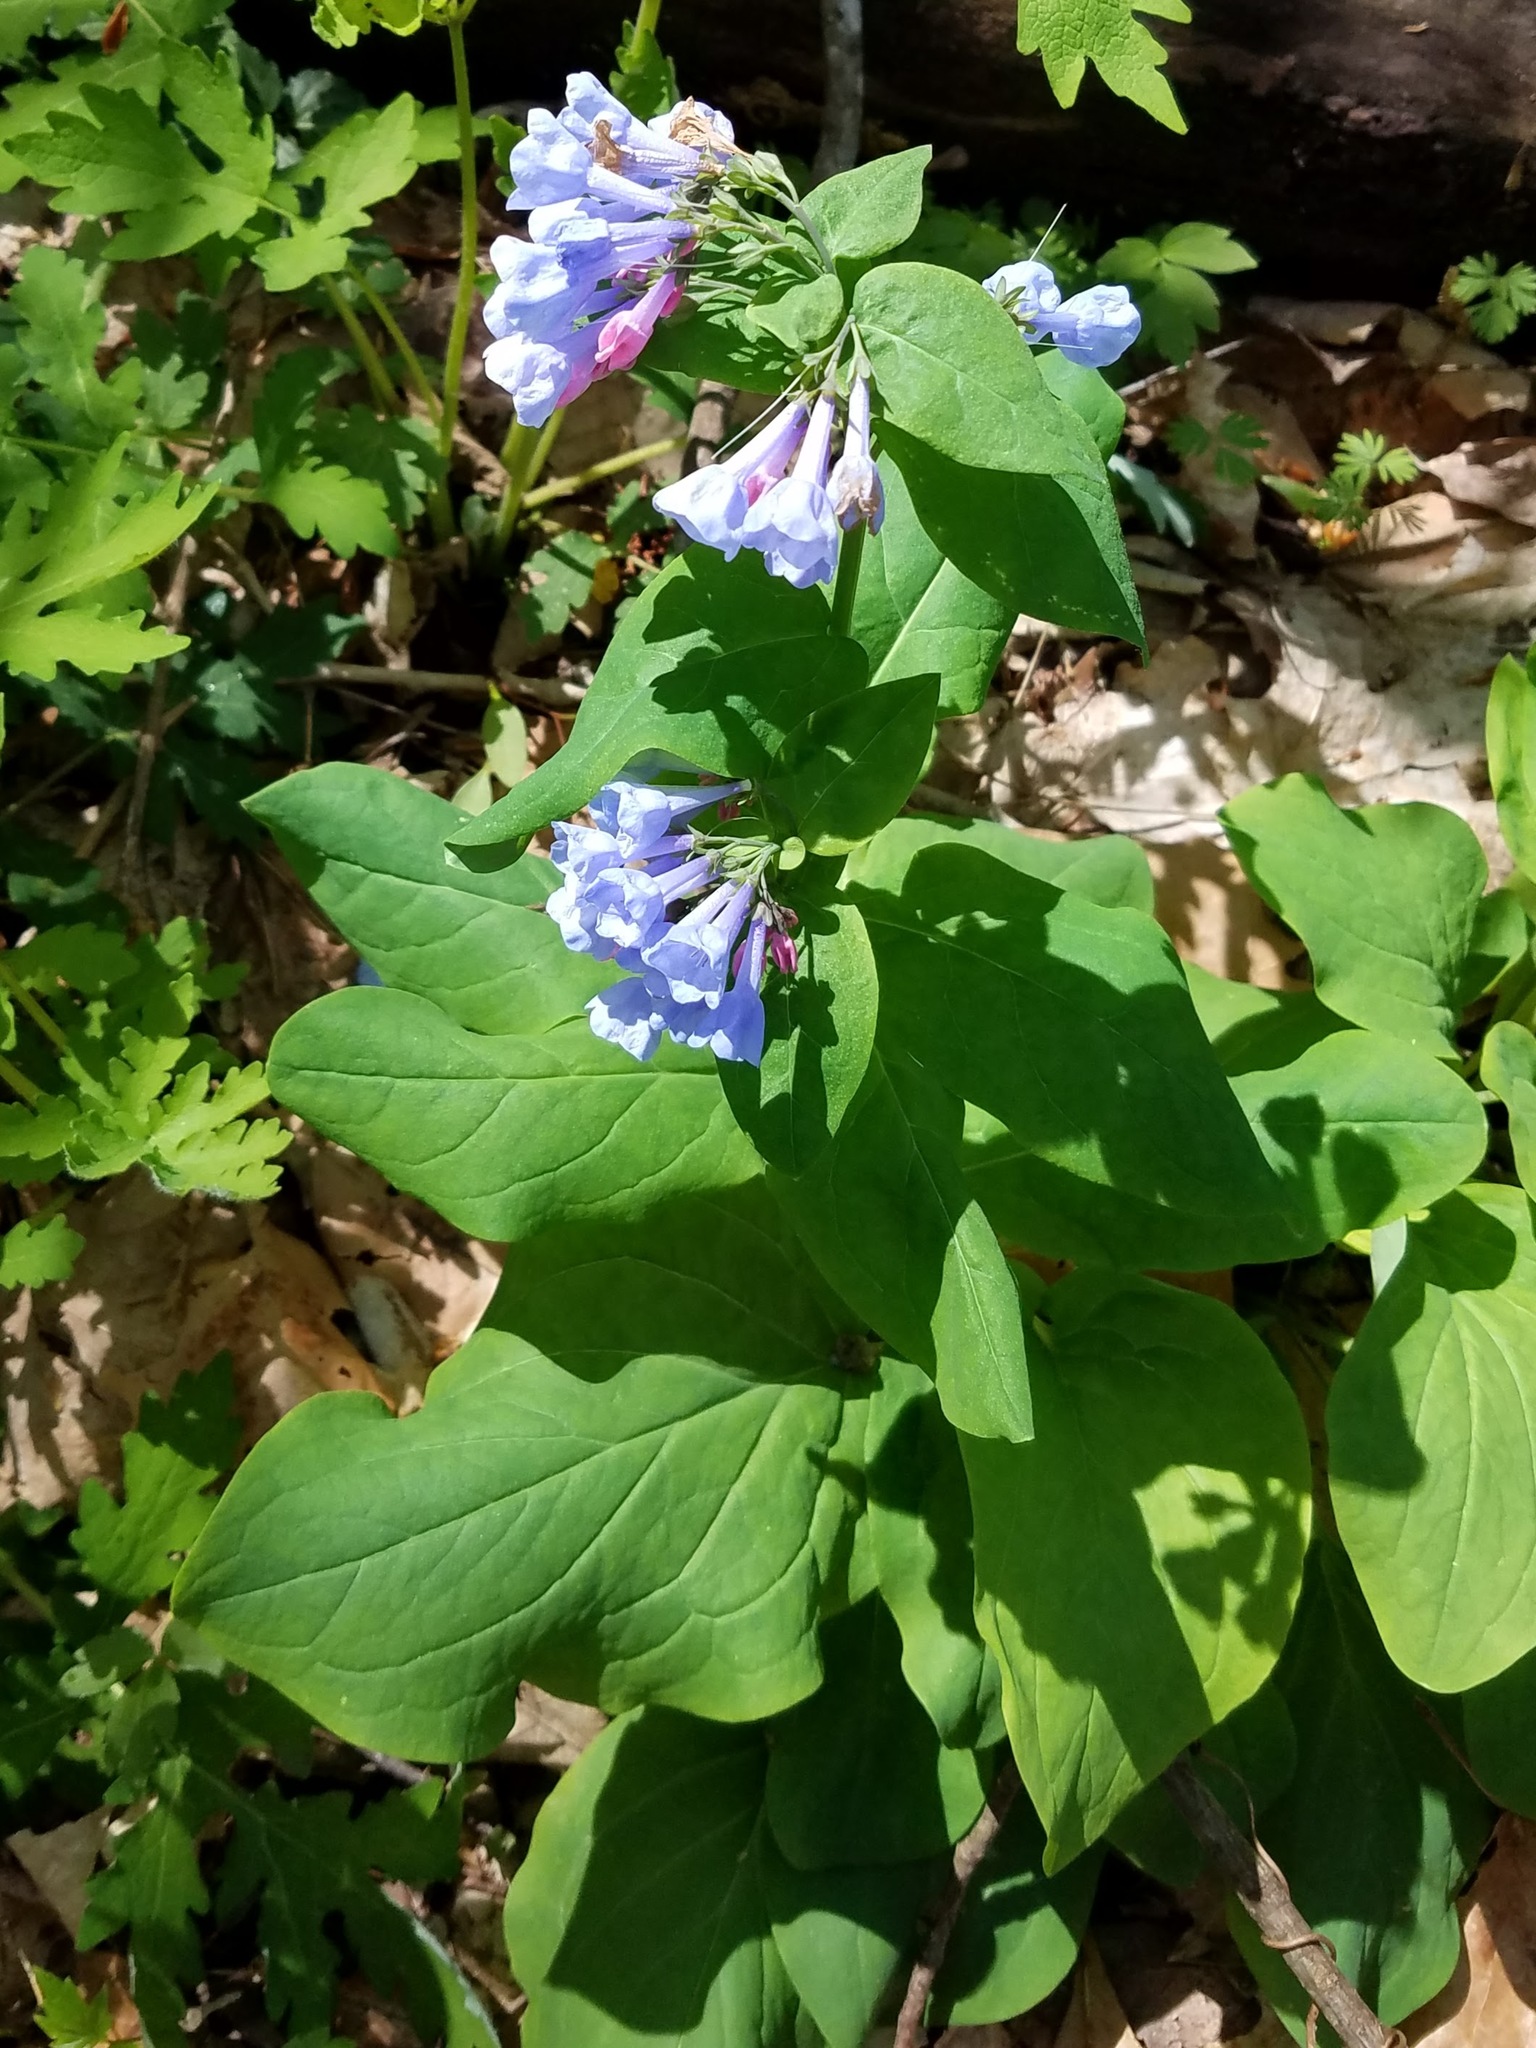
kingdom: Plantae
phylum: Tracheophyta
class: Magnoliopsida
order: Boraginales
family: Boraginaceae
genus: Mertensia
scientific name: Mertensia virginica
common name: Virginia bluebells
